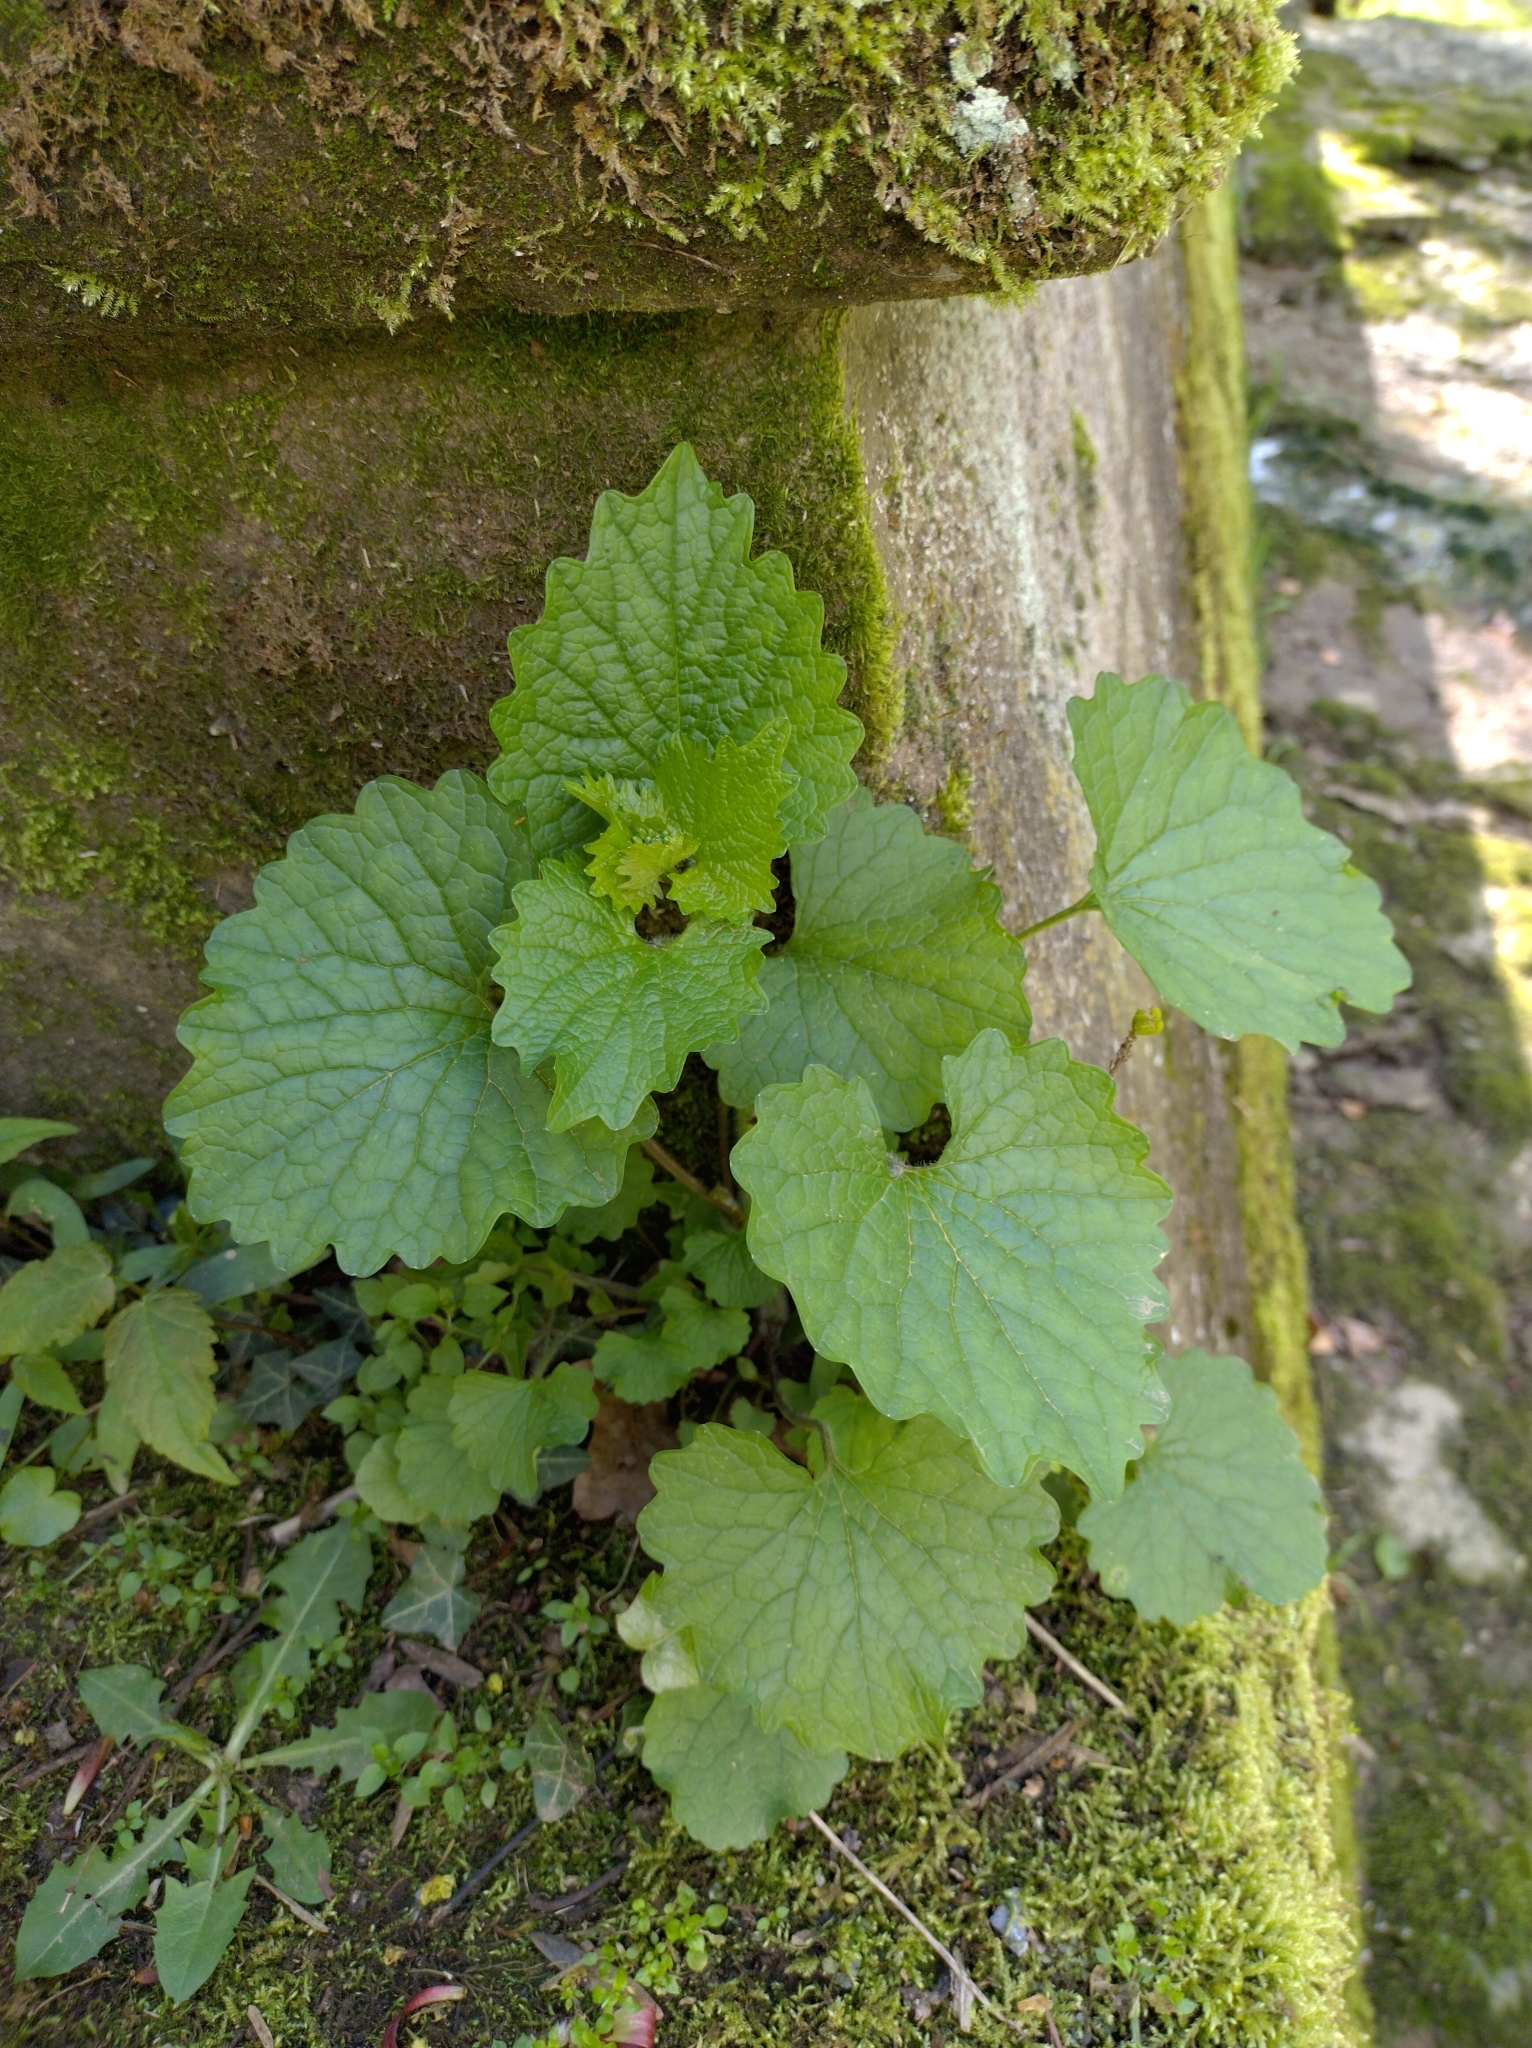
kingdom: Plantae
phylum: Tracheophyta
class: Magnoliopsida
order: Brassicales
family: Brassicaceae
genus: Alliaria
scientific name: Alliaria petiolata
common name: Garlic mustard
